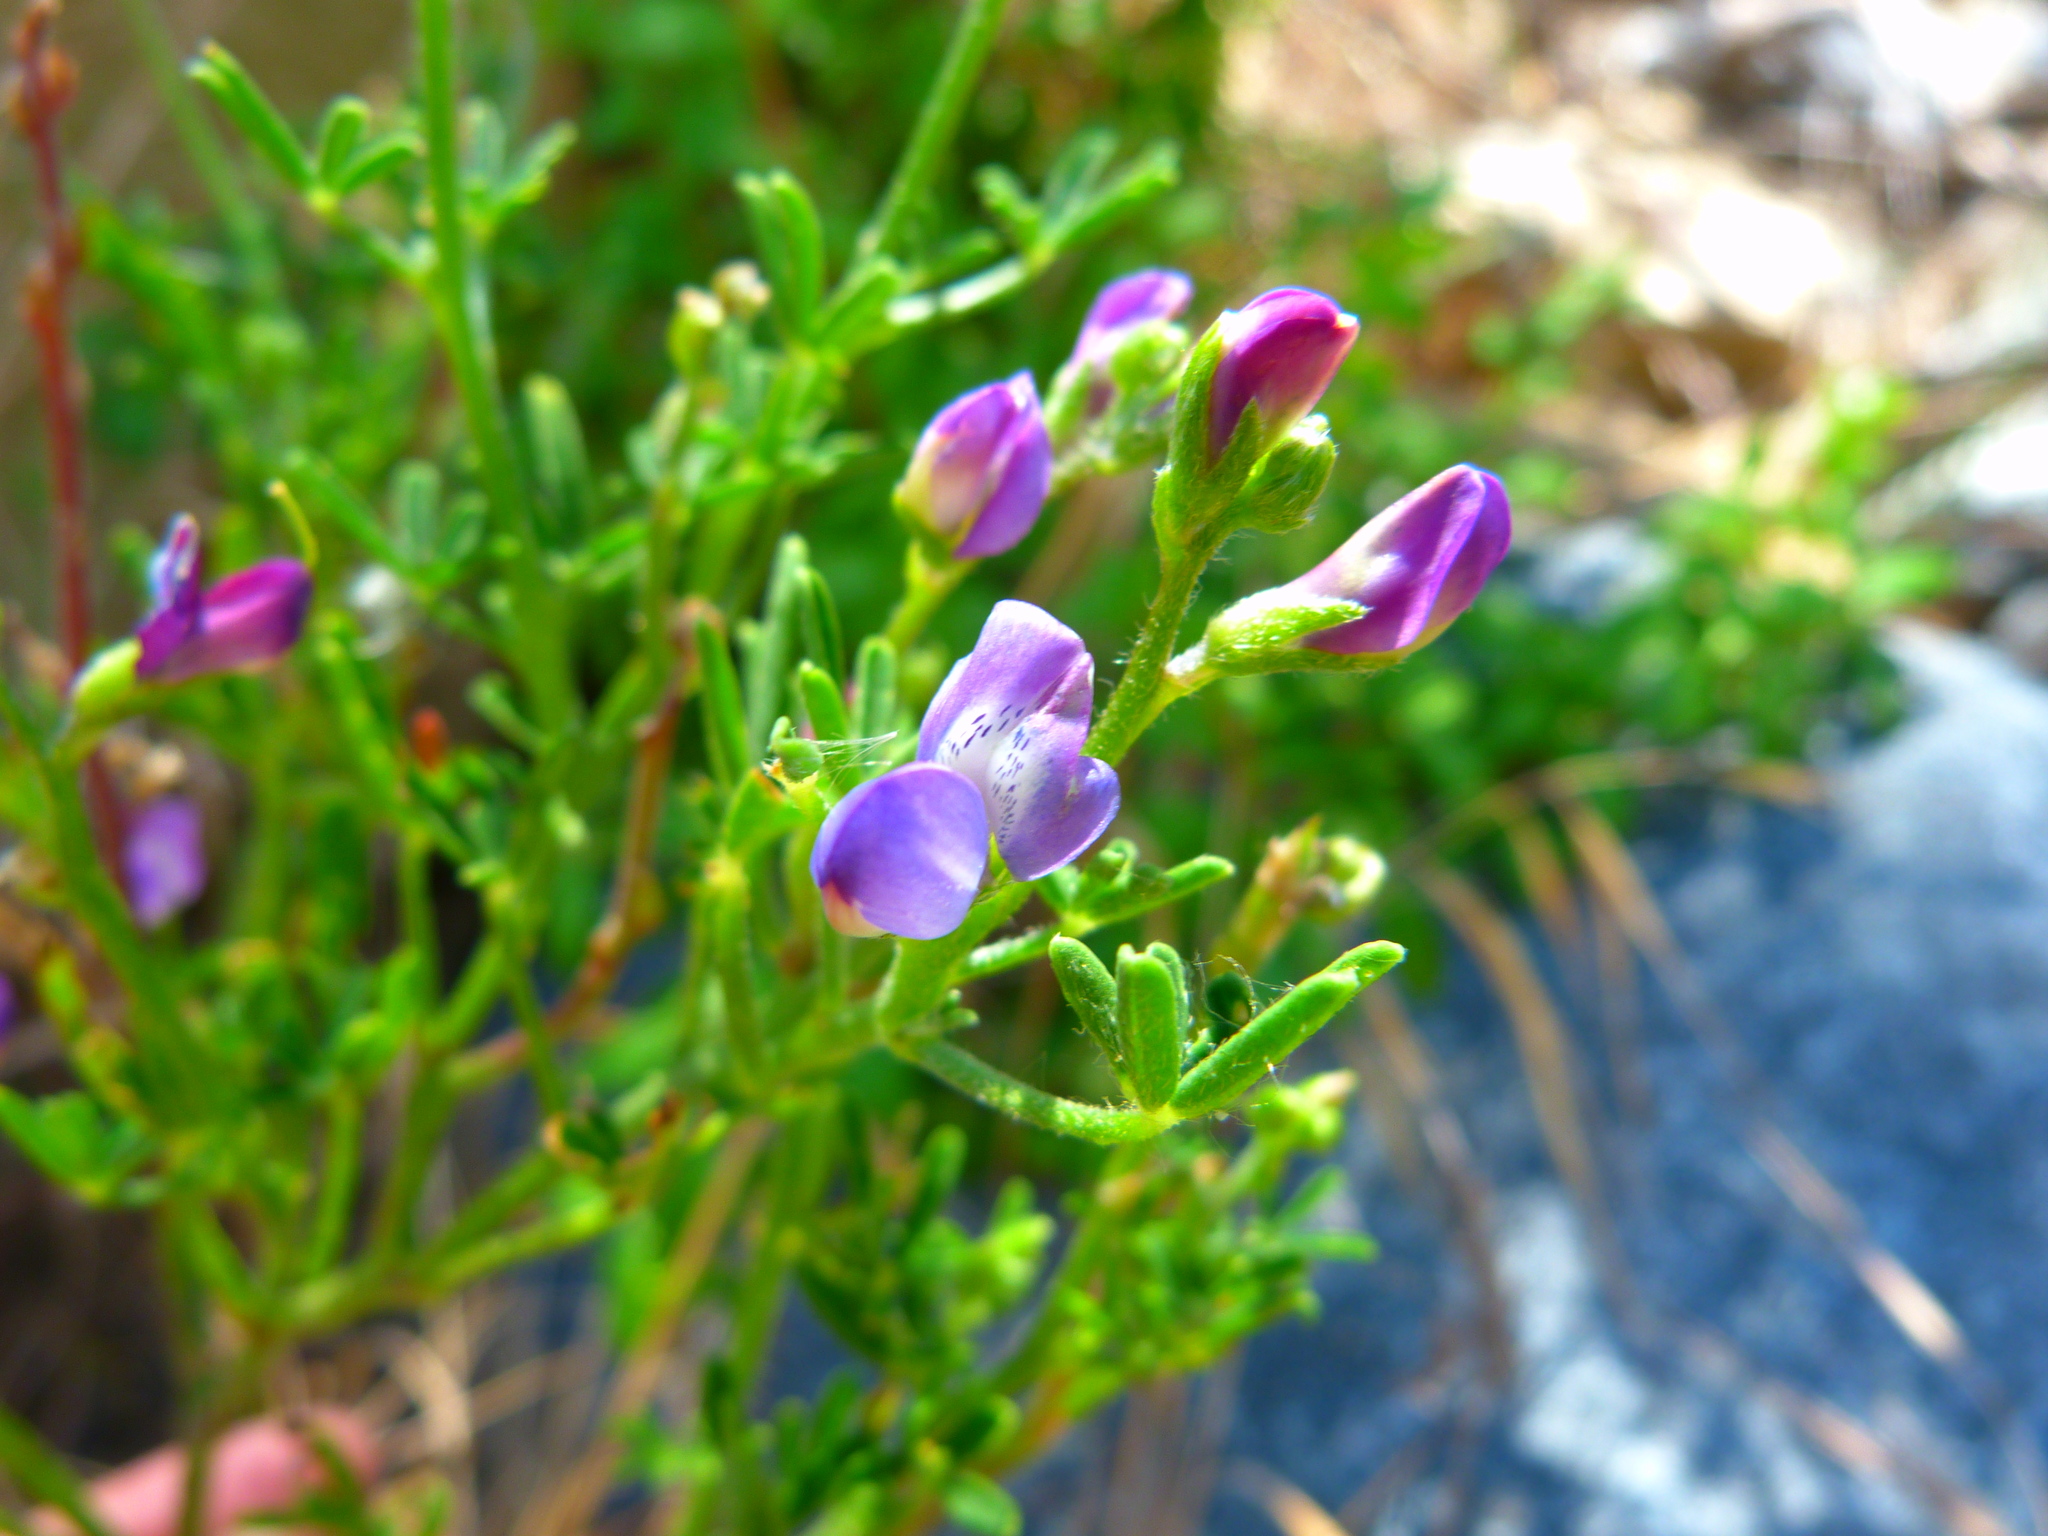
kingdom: Plantae
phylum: Tracheophyta
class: Magnoliopsida
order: Fabales
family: Fabaceae
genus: Lupinus
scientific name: Lupinus truncatus
